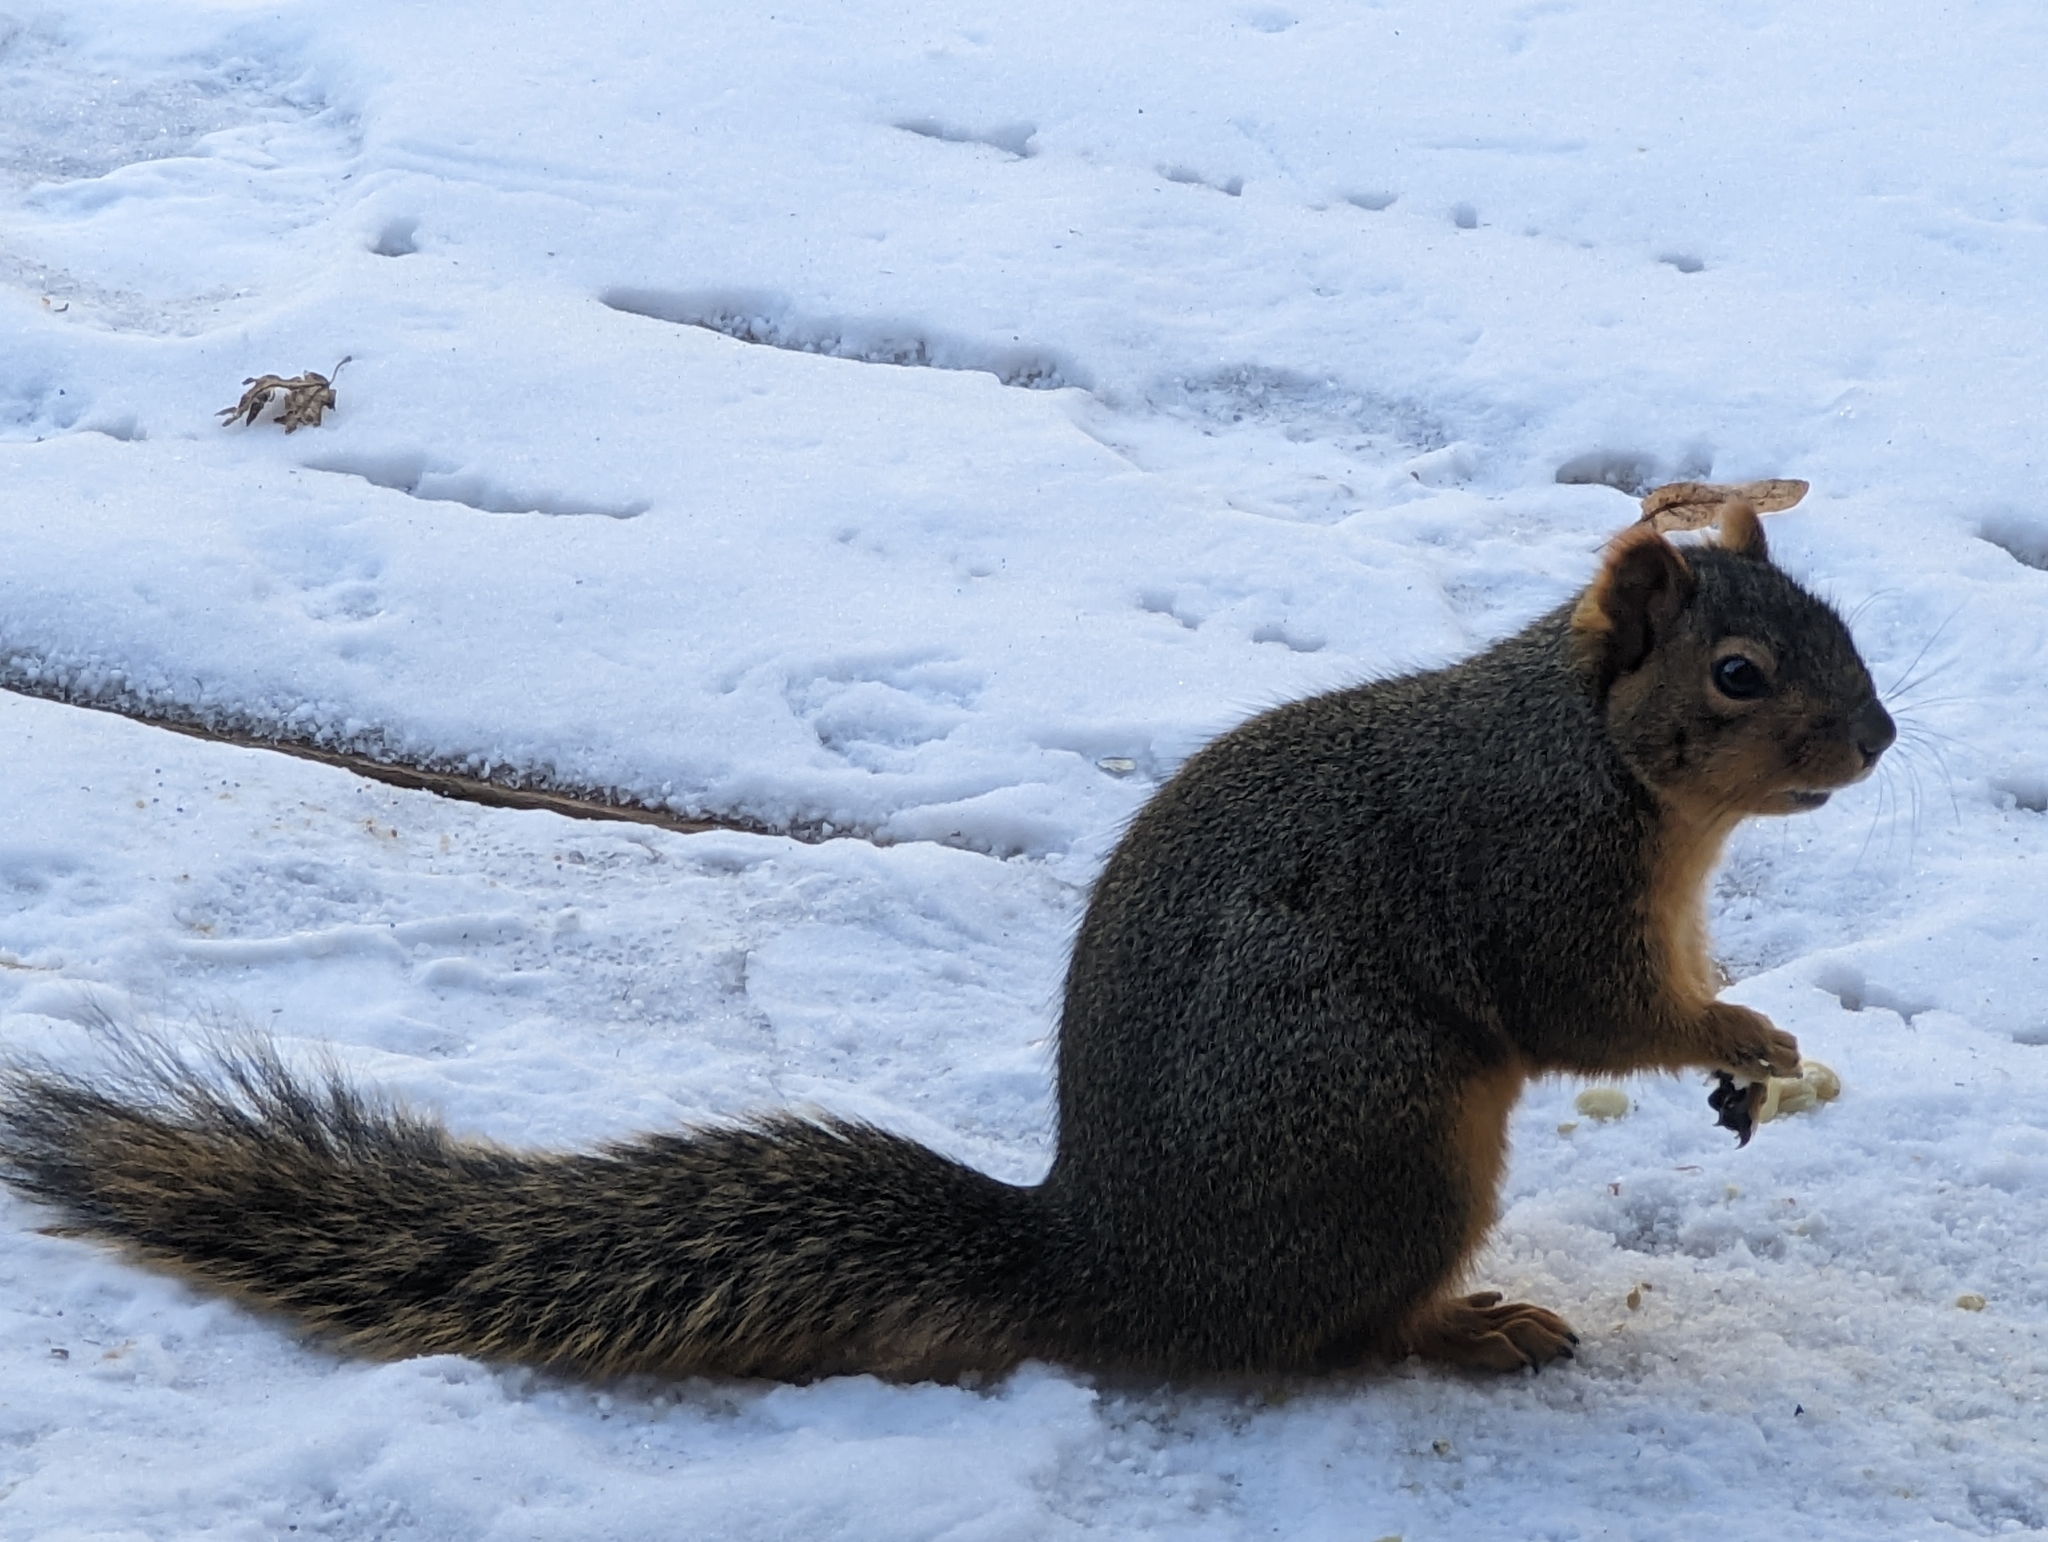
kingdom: Animalia
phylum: Chordata
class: Mammalia
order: Rodentia
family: Sciuridae
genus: Sciurus
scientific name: Sciurus niger
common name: Fox squirrel
